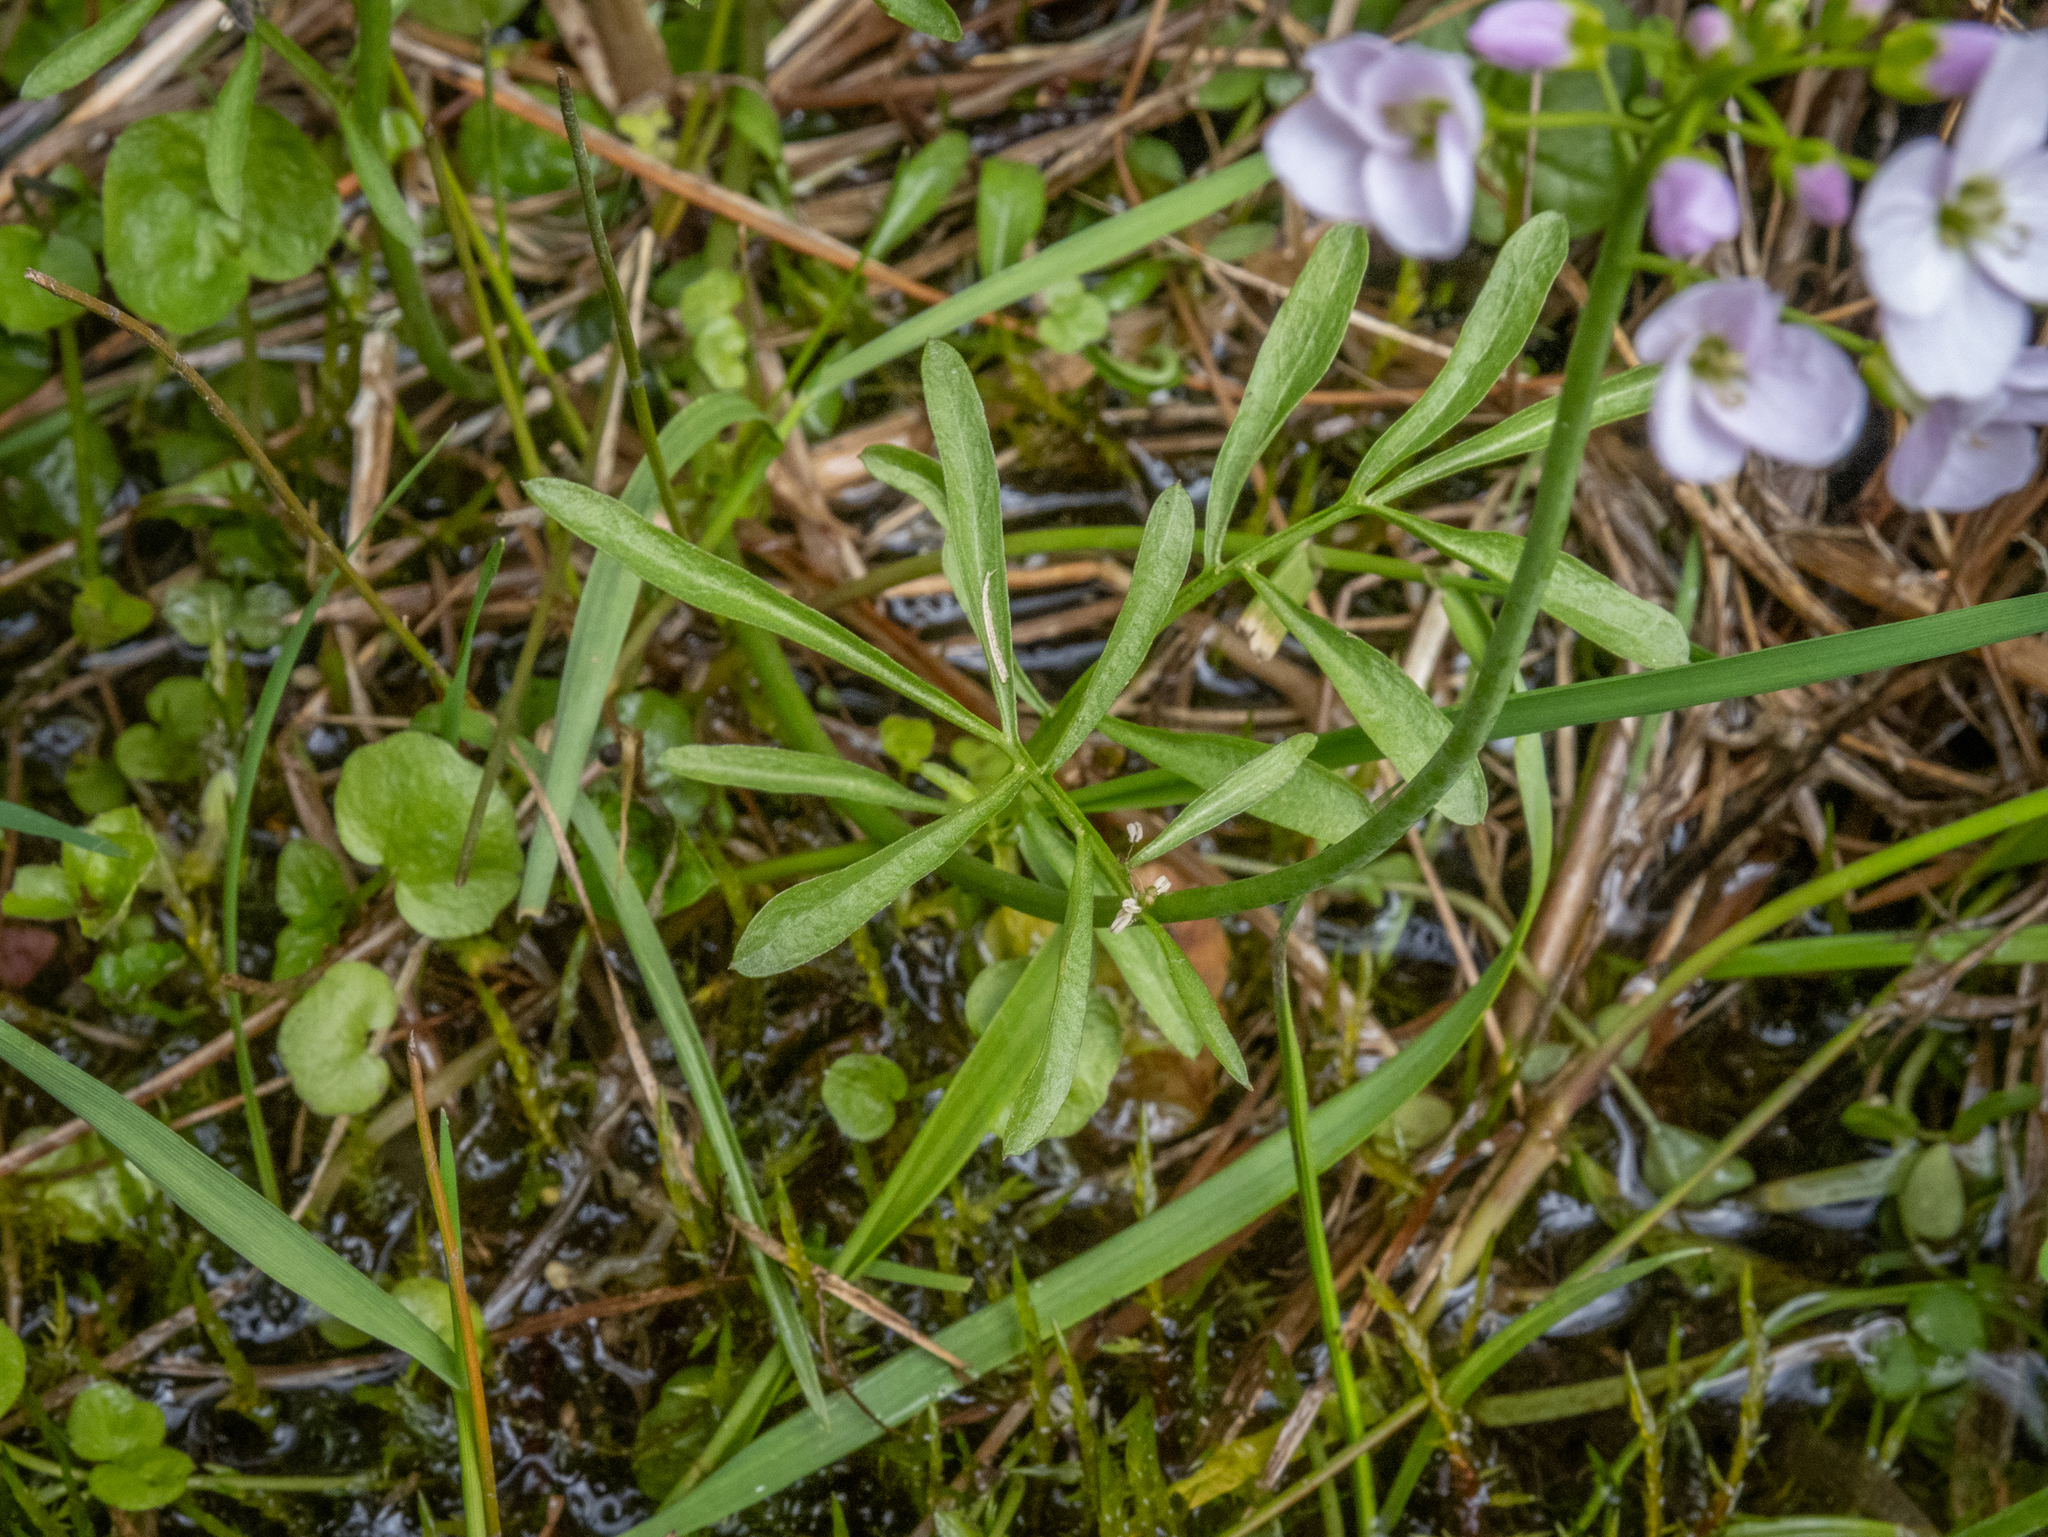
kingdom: Plantae
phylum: Tracheophyta
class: Magnoliopsida
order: Brassicales
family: Brassicaceae
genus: Cardamine
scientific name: Cardamine pratensis
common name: Cuckoo flower
